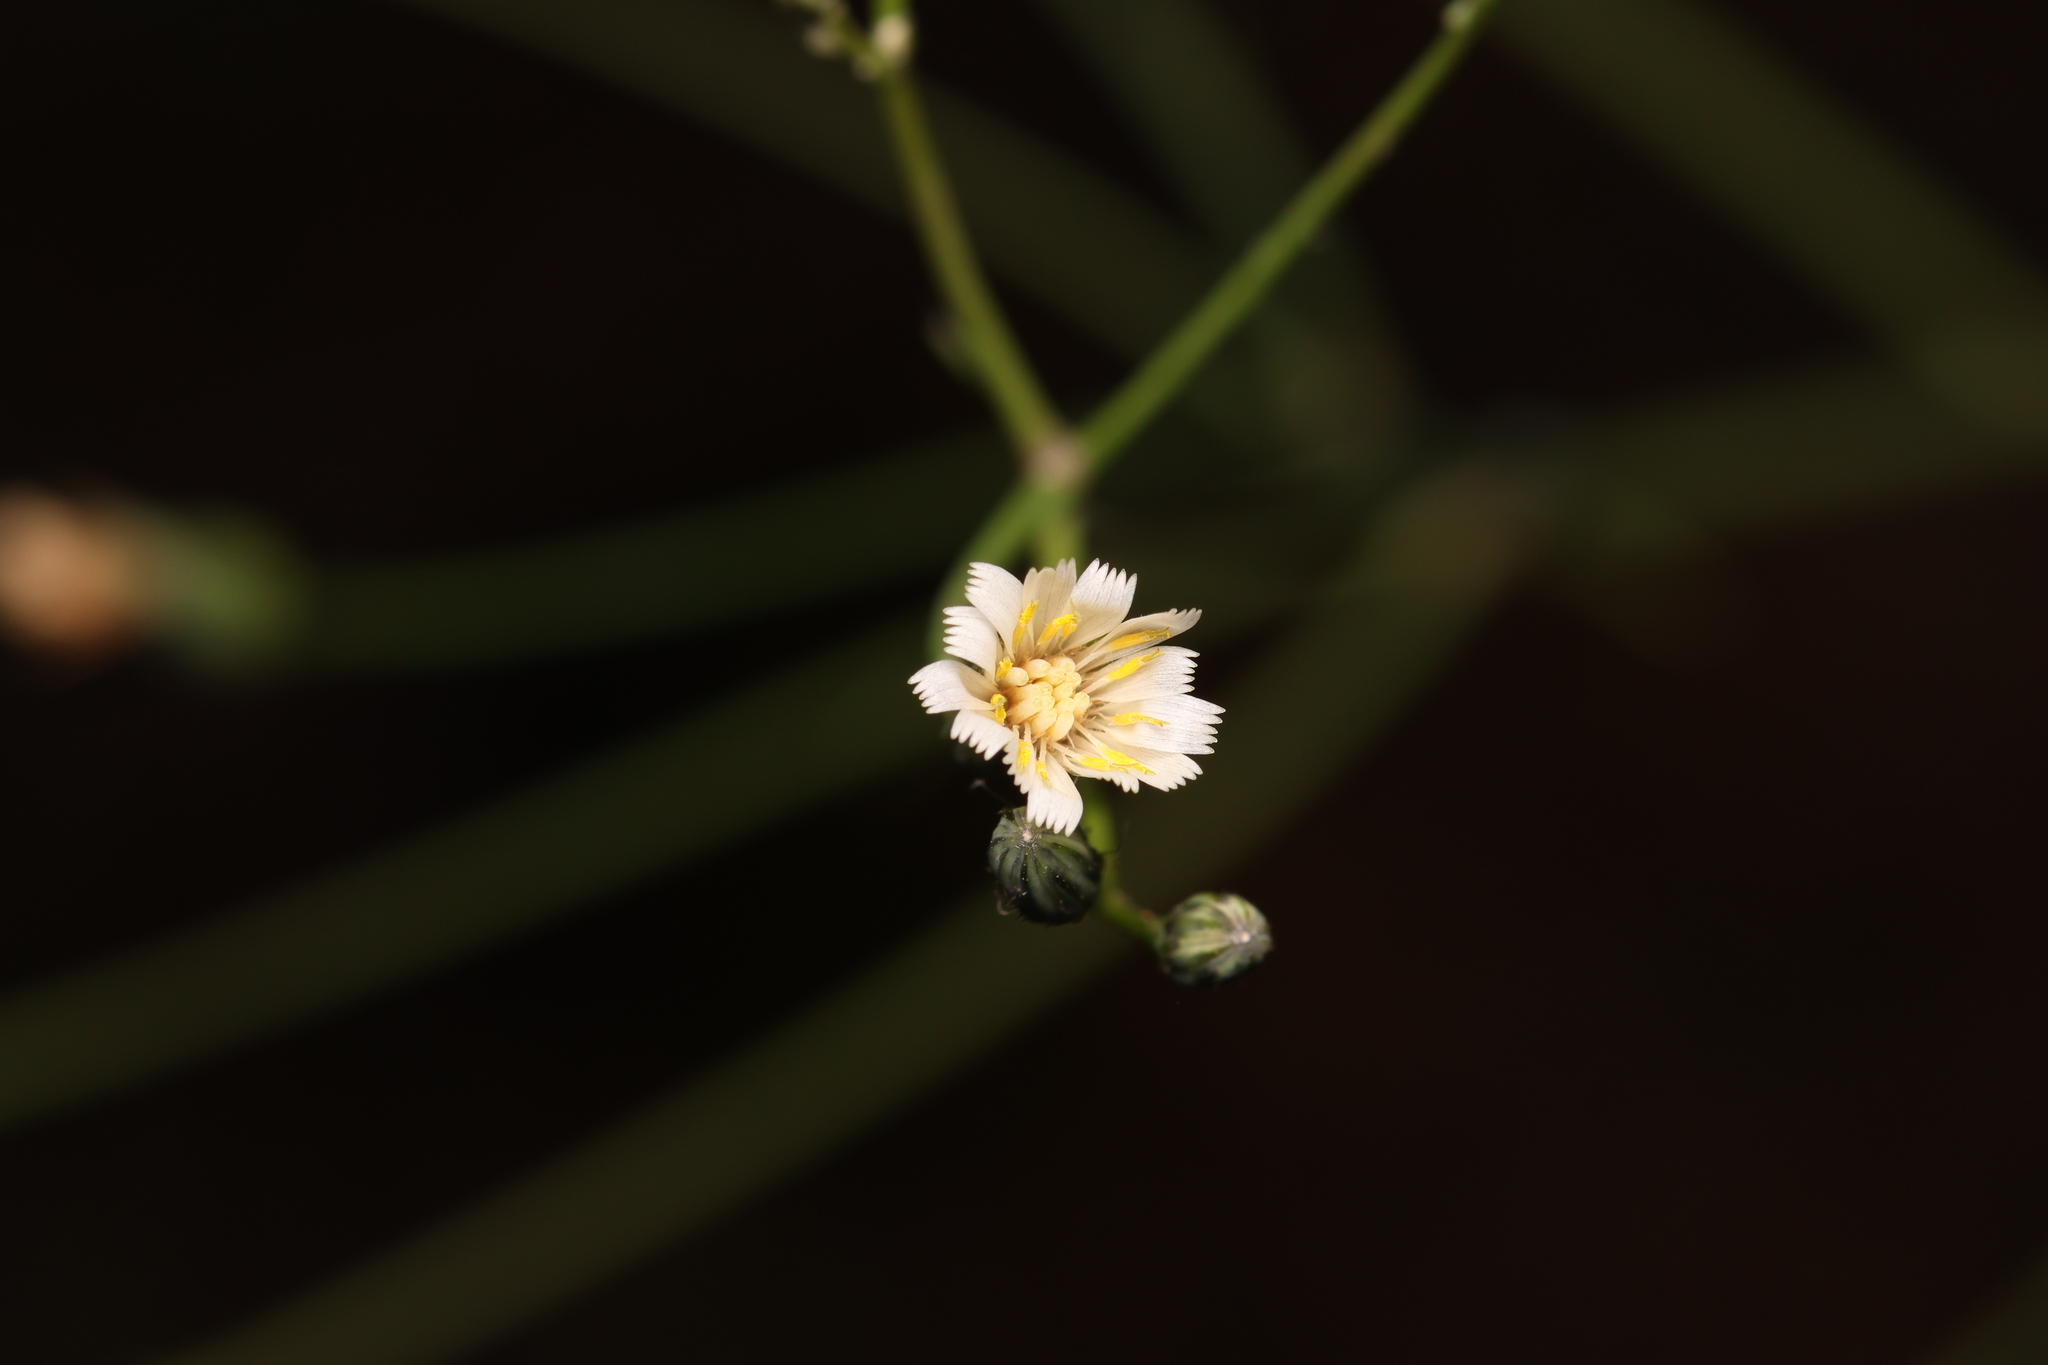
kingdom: Plantae
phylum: Tracheophyta
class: Magnoliopsida
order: Asterales
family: Asteraceae
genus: Hieracium
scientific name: Hieracium albiflorum
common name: White hawkweed
